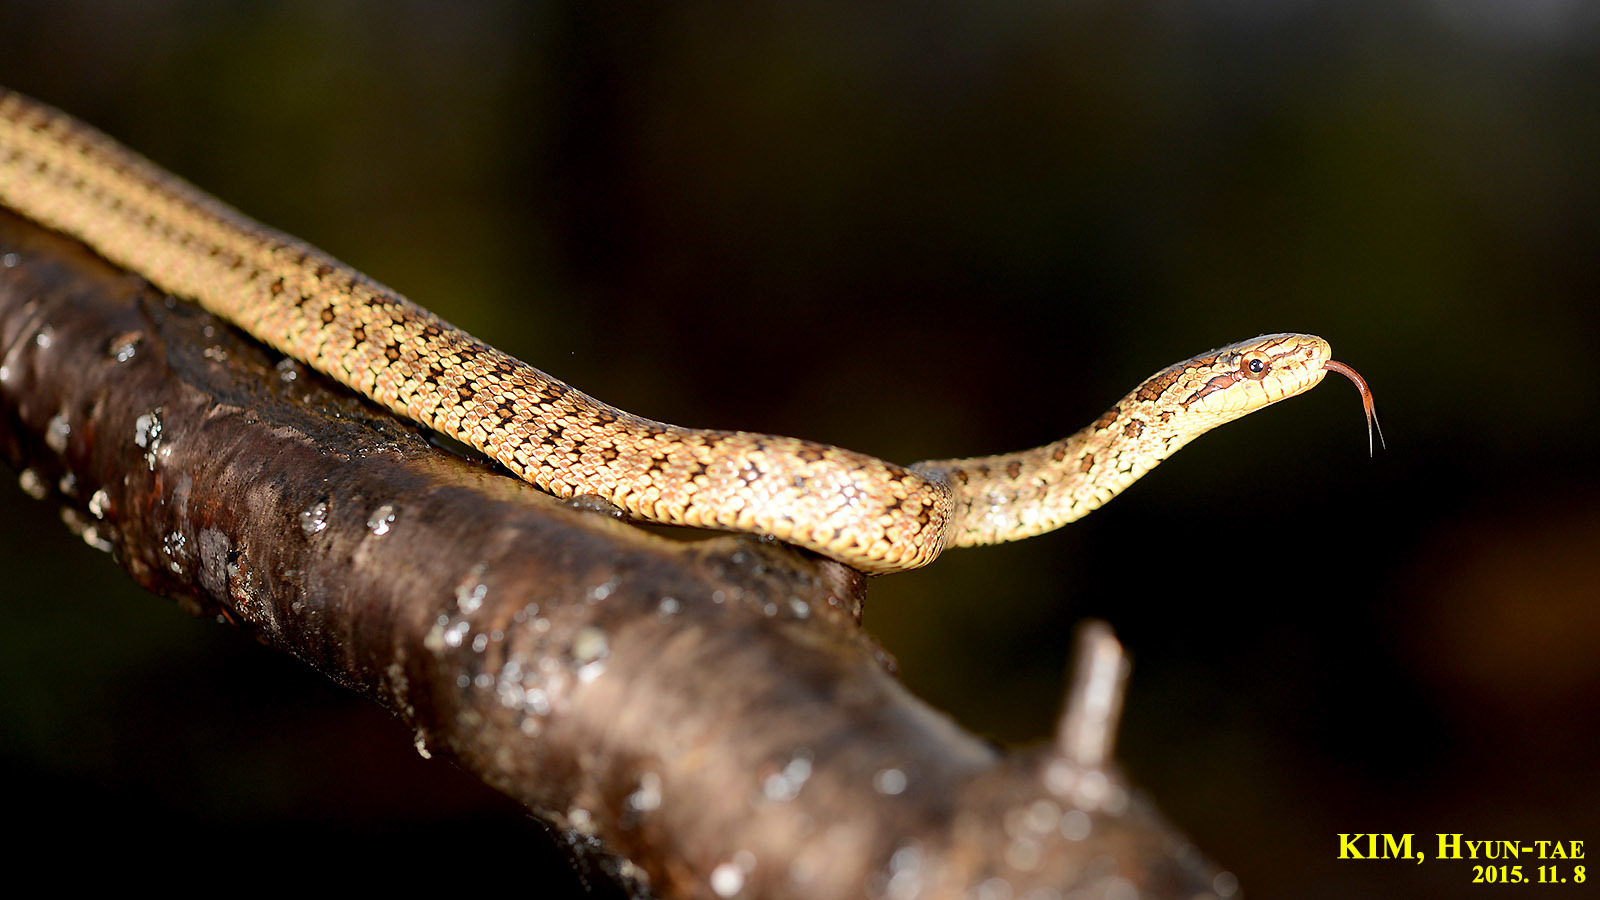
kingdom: Animalia
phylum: Chordata
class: Squamata
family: Colubridae
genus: Elaphe
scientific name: Elaphe dione
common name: Dione ratsnake
